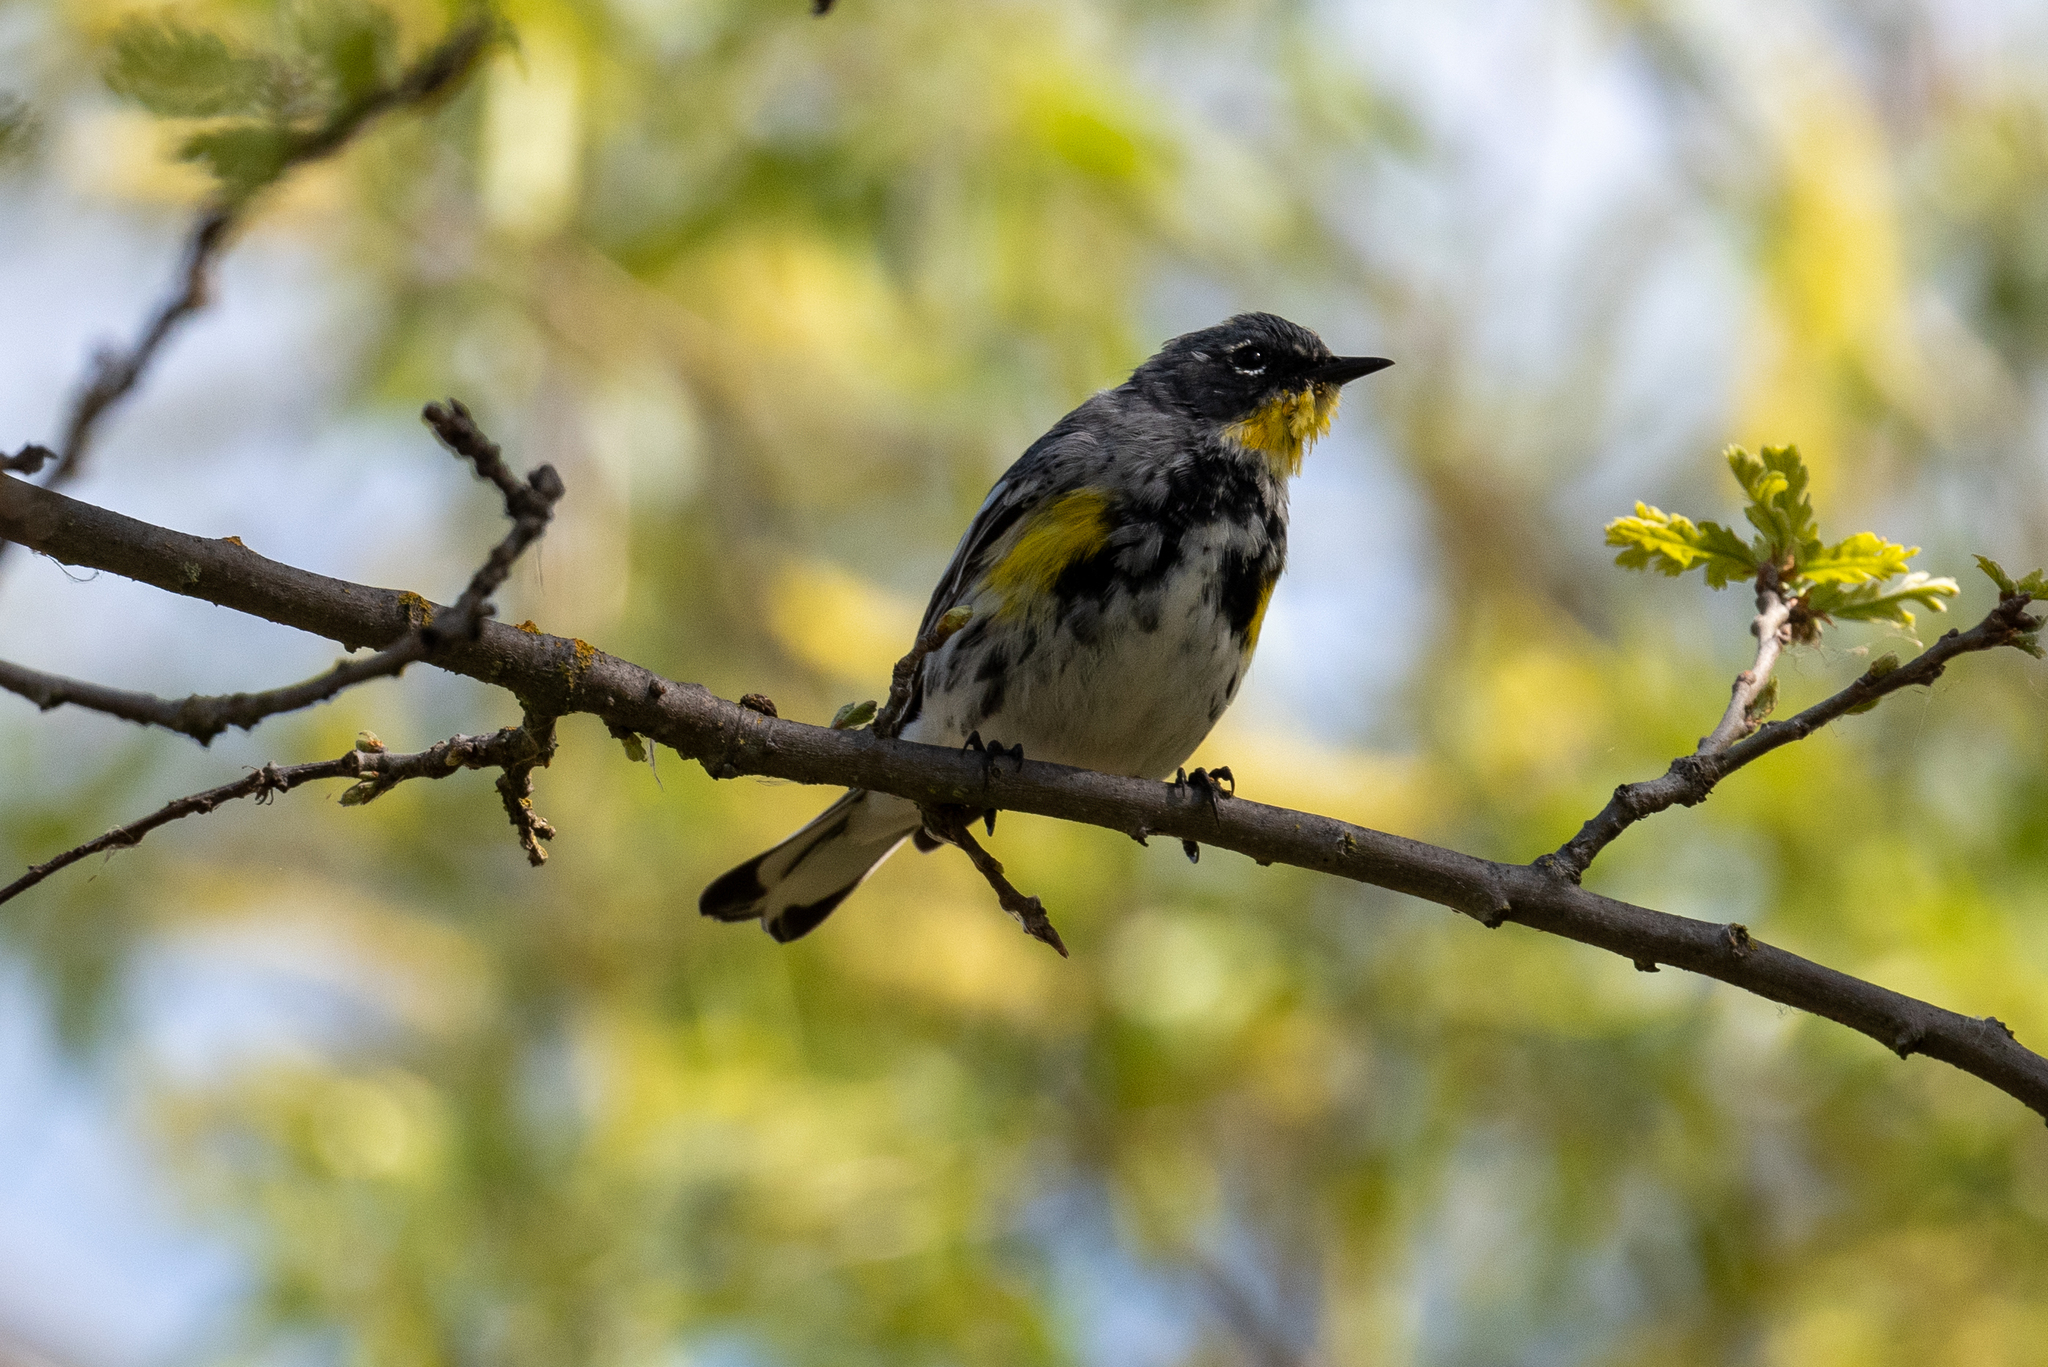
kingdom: Animalia
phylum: Chordata
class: Aves
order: Passeriformes
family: Parulidae
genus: Setophaga
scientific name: Setophaga coronata
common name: Myrtle warbler
